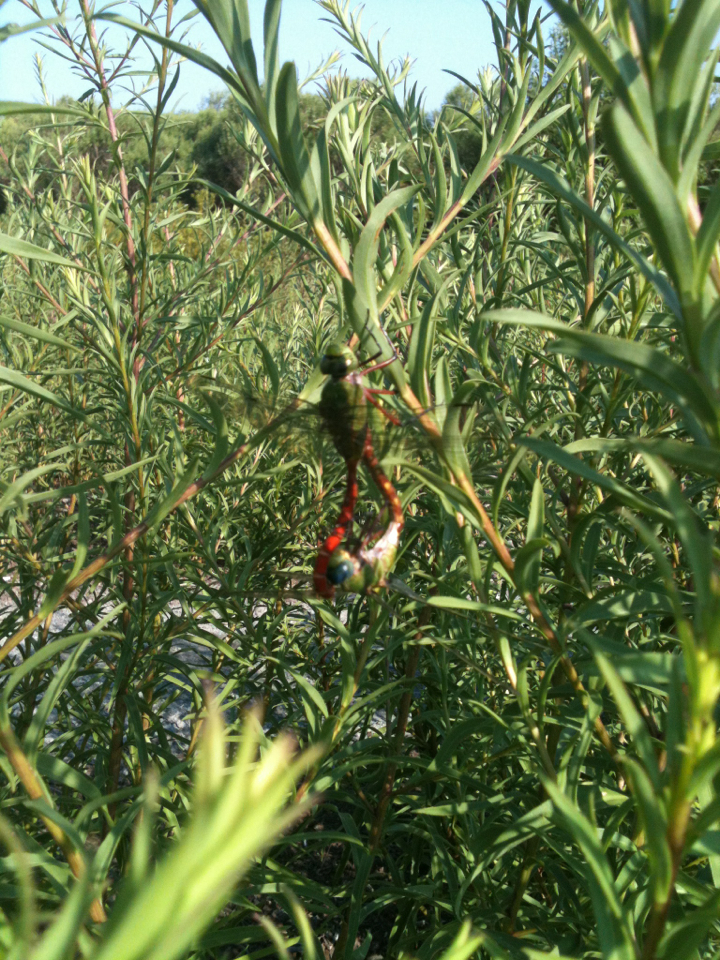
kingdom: Animalia
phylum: Arthropoda
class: Insecta
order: Odonata
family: Aeshnidae
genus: Anax
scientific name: Anax longipes
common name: Comet darner
